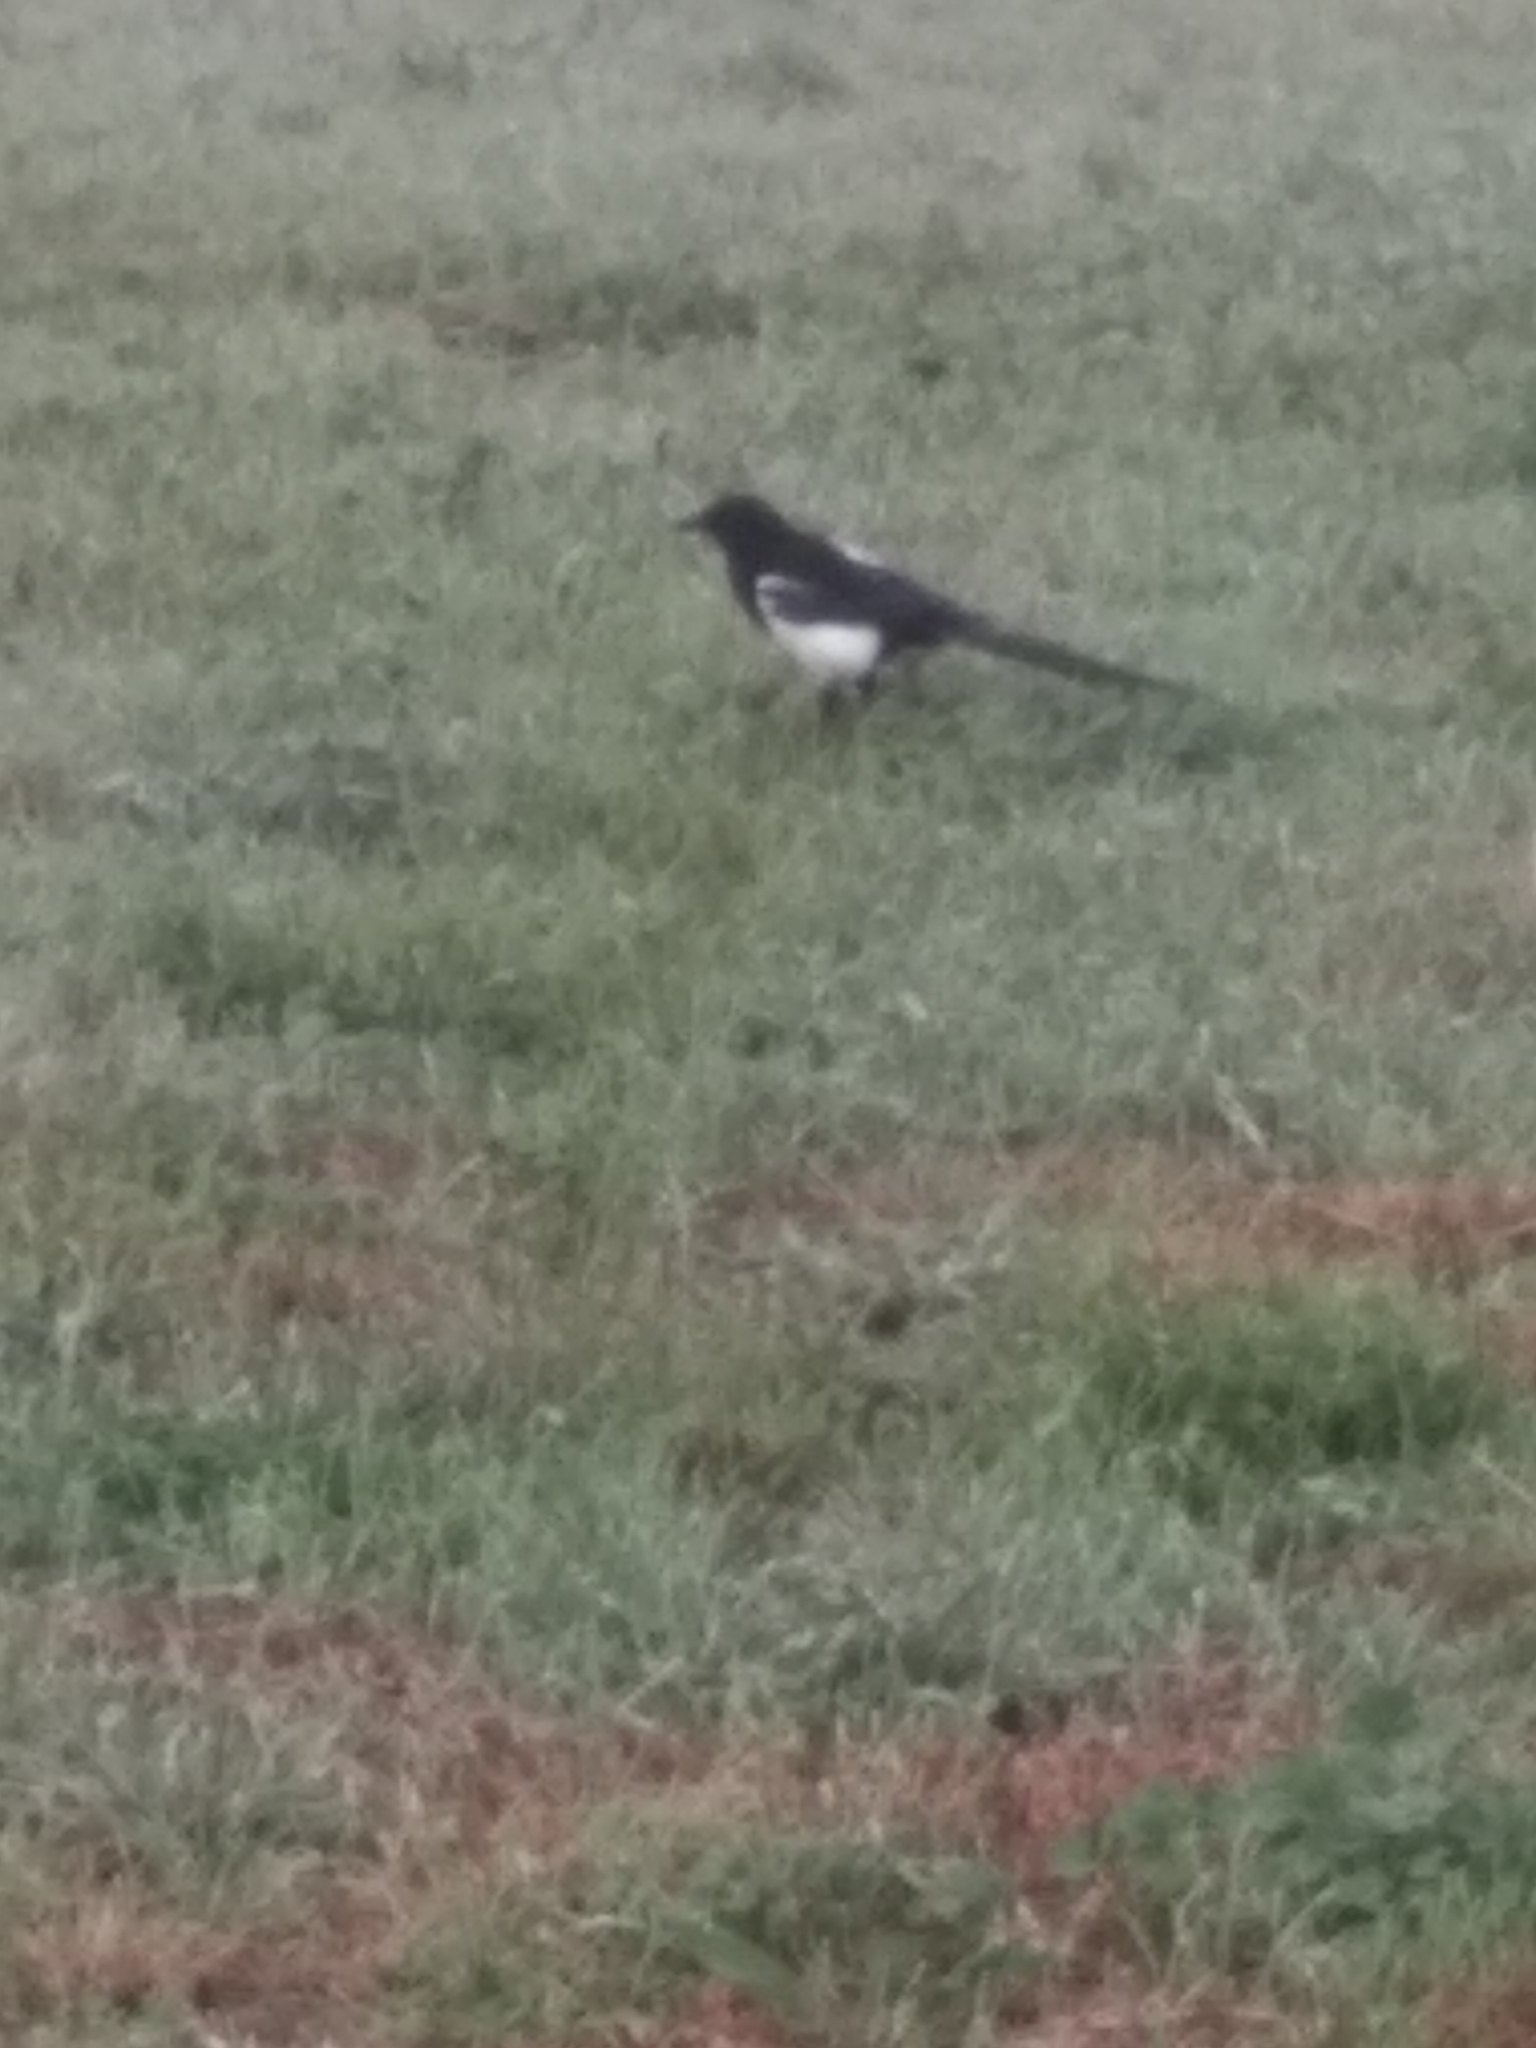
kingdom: Animalia
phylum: Chordata
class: Aves
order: Passeriformes
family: Corvidae
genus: Pica
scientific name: Pica pica
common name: Eurasian magpie
